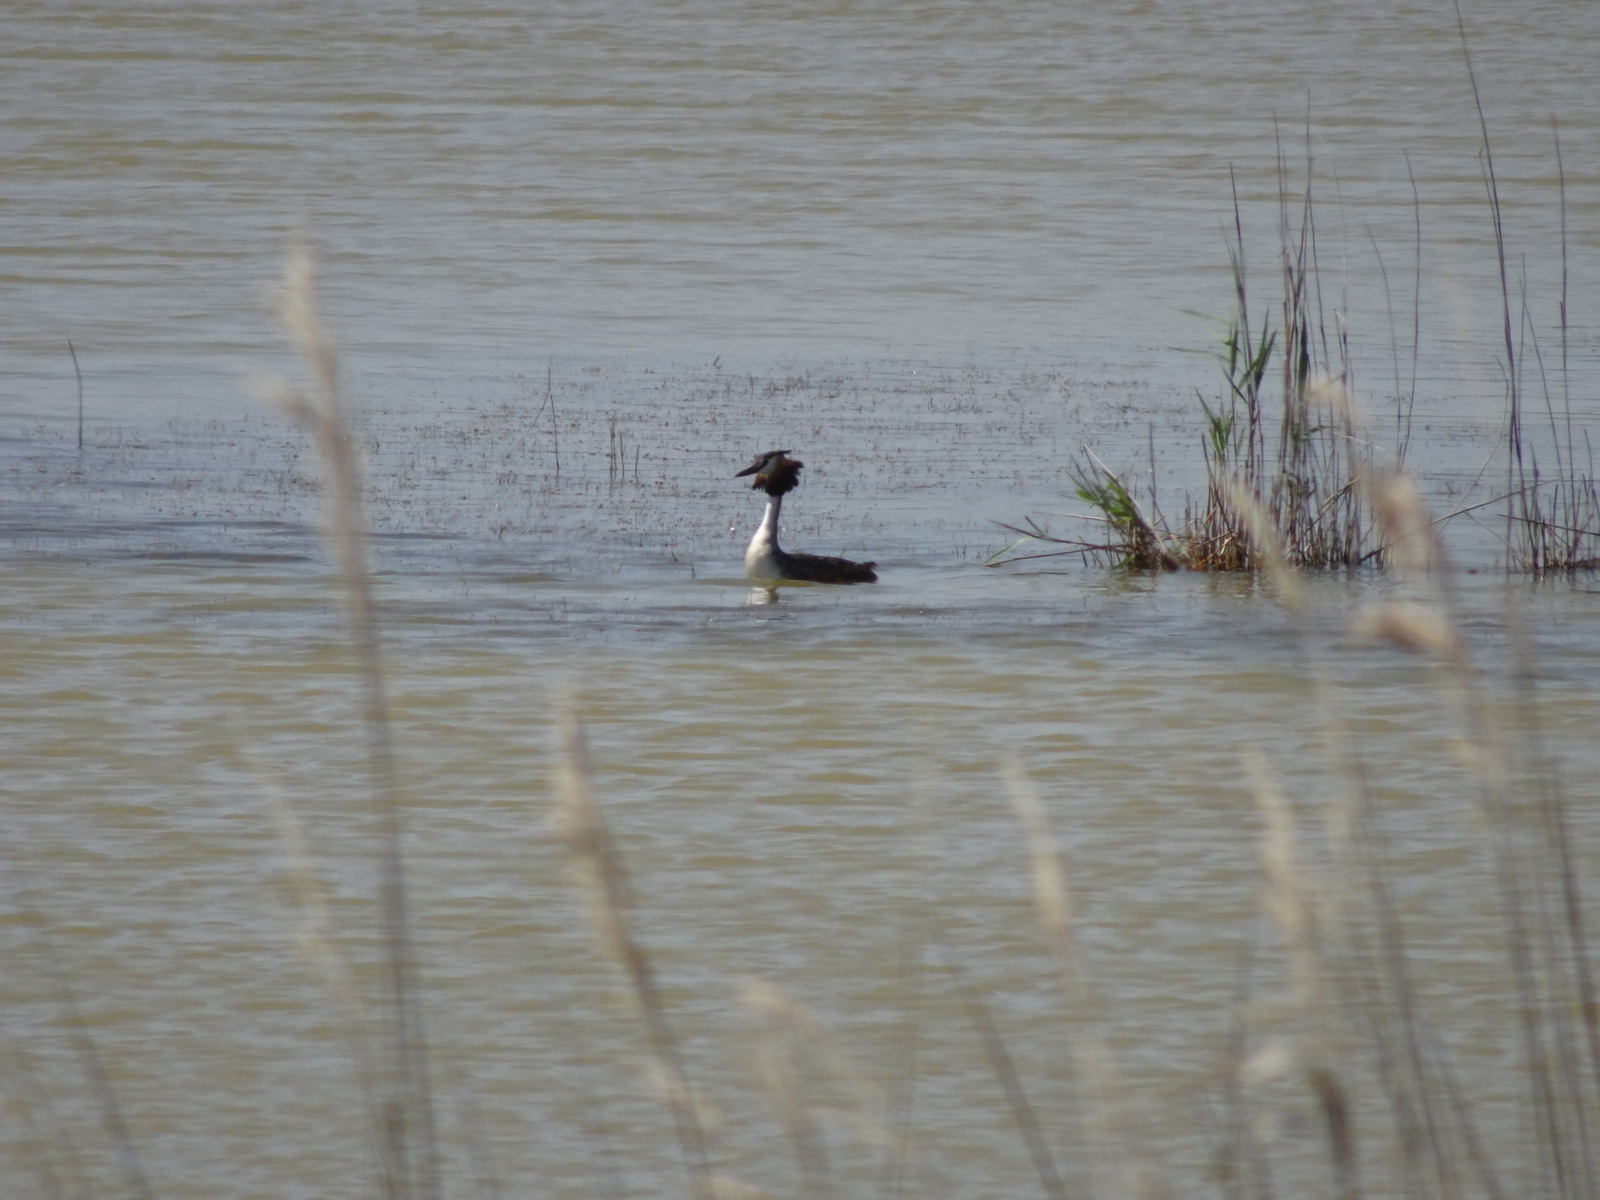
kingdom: Animalia
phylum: Chordata
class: Aves
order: Podicipediformes
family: Podicipedidae
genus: Podiceps
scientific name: Podiceps cristatus
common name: Great crested grebe
